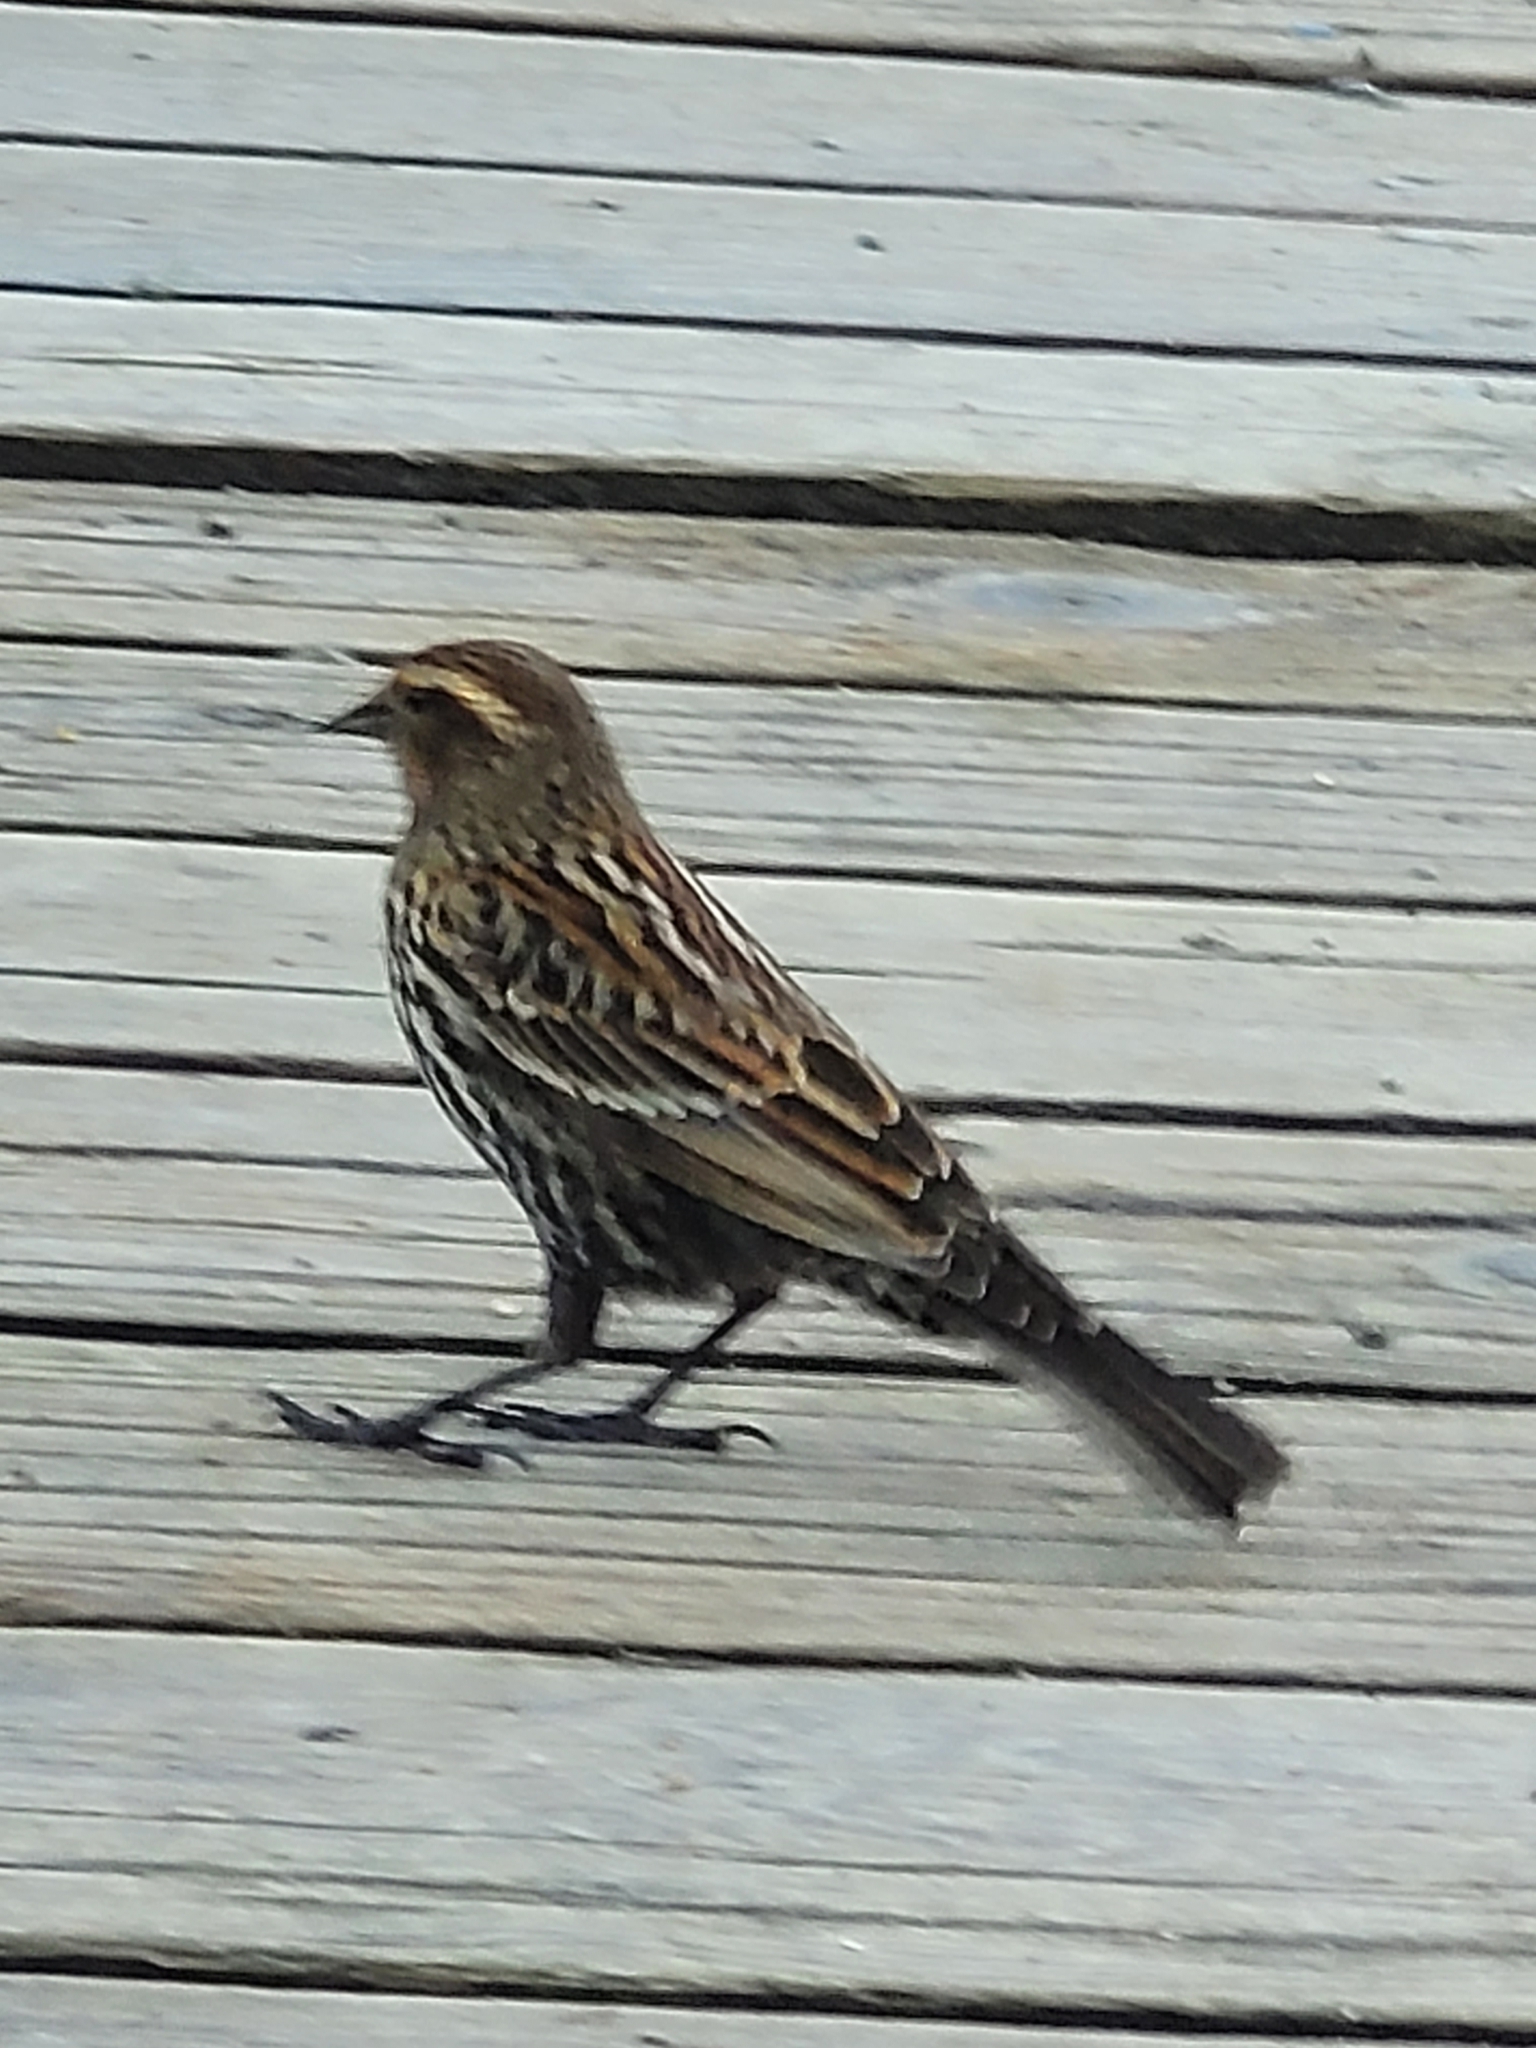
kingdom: Animalia
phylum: Chordata
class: Aves
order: Passeriformes
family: Icteridae
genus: Agelaius
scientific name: Agelaius phoeniceus
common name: Red-winged blackbird
